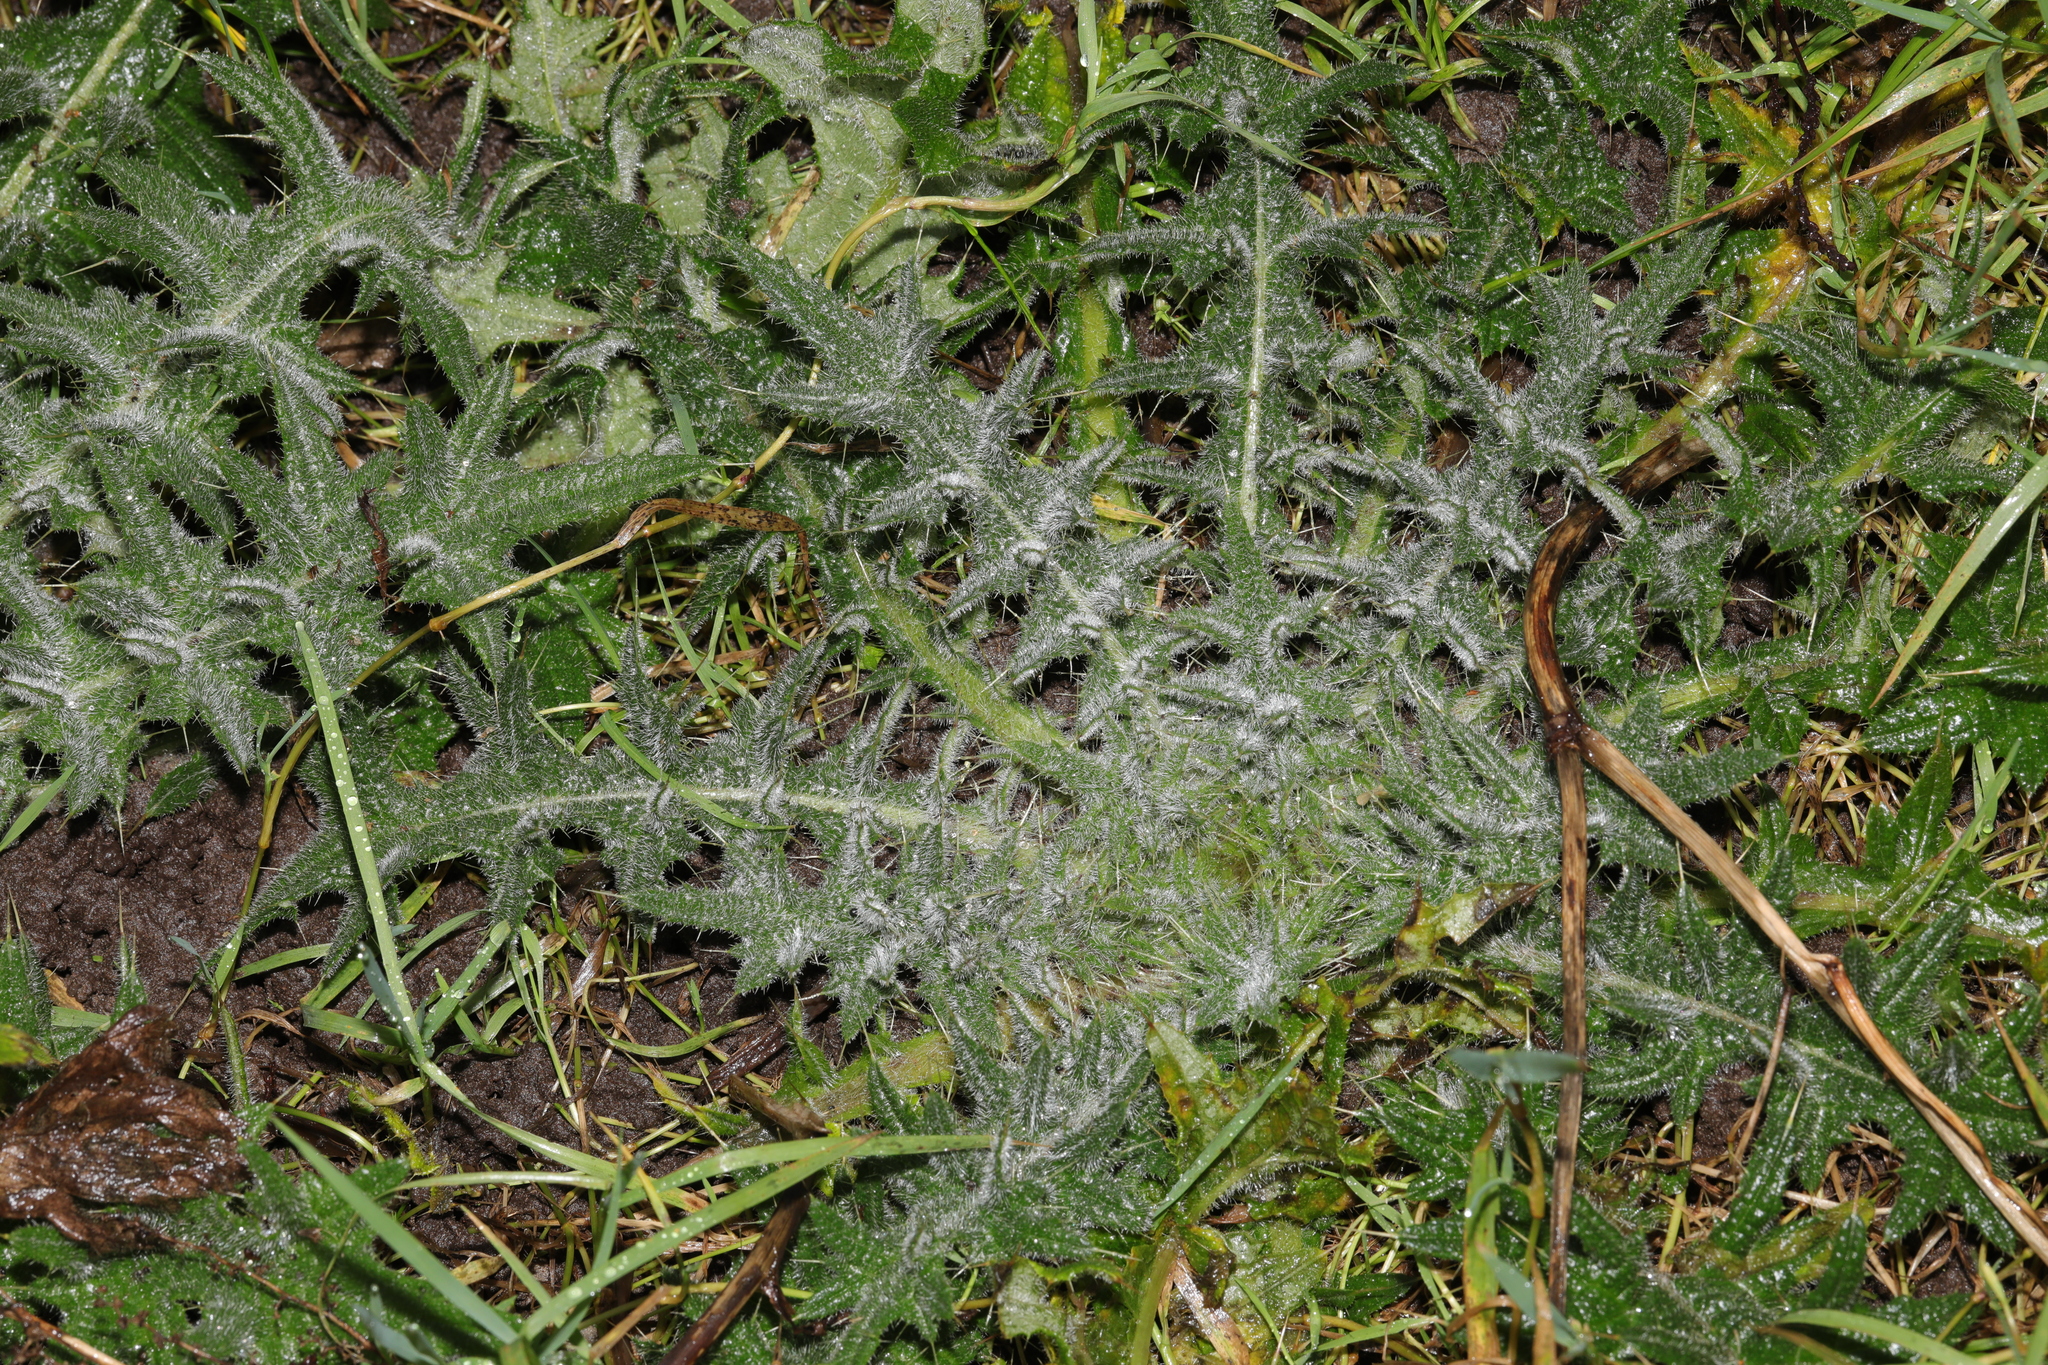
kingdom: Plantae
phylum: Tracheophyta
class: Magnoliopsida
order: Asterales
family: Asteraceae
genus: Cirsium
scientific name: Cirsium vulgare
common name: Bull thistle
